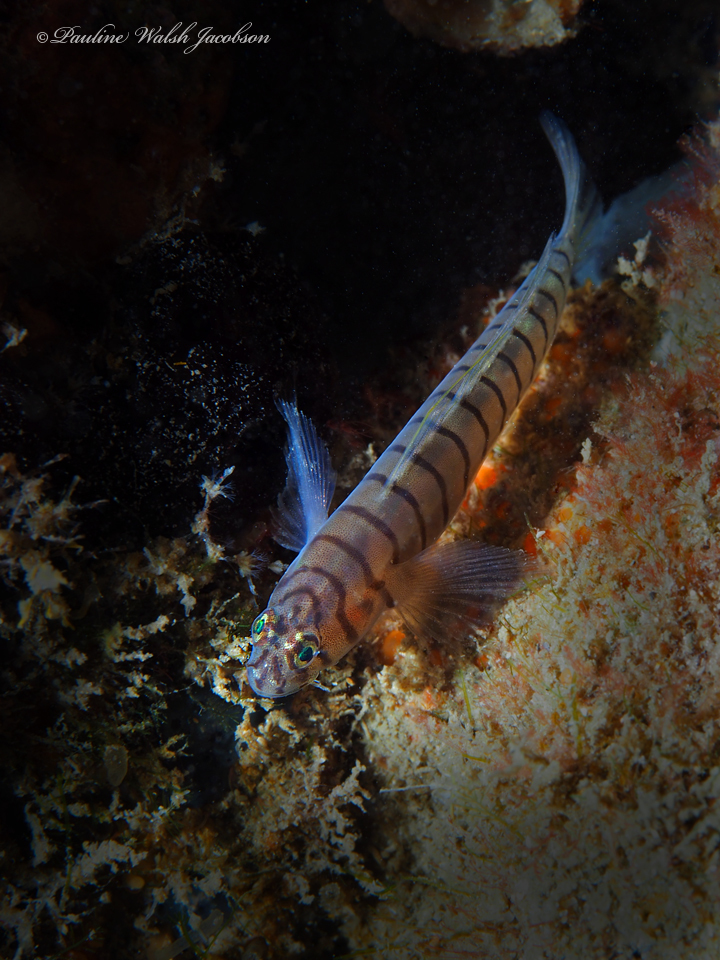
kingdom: Animalia
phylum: Chordata
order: Perciformes
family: Gobiidae
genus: Tigrigobius
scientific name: Tigrigobius macrodon
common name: Tiger goby
